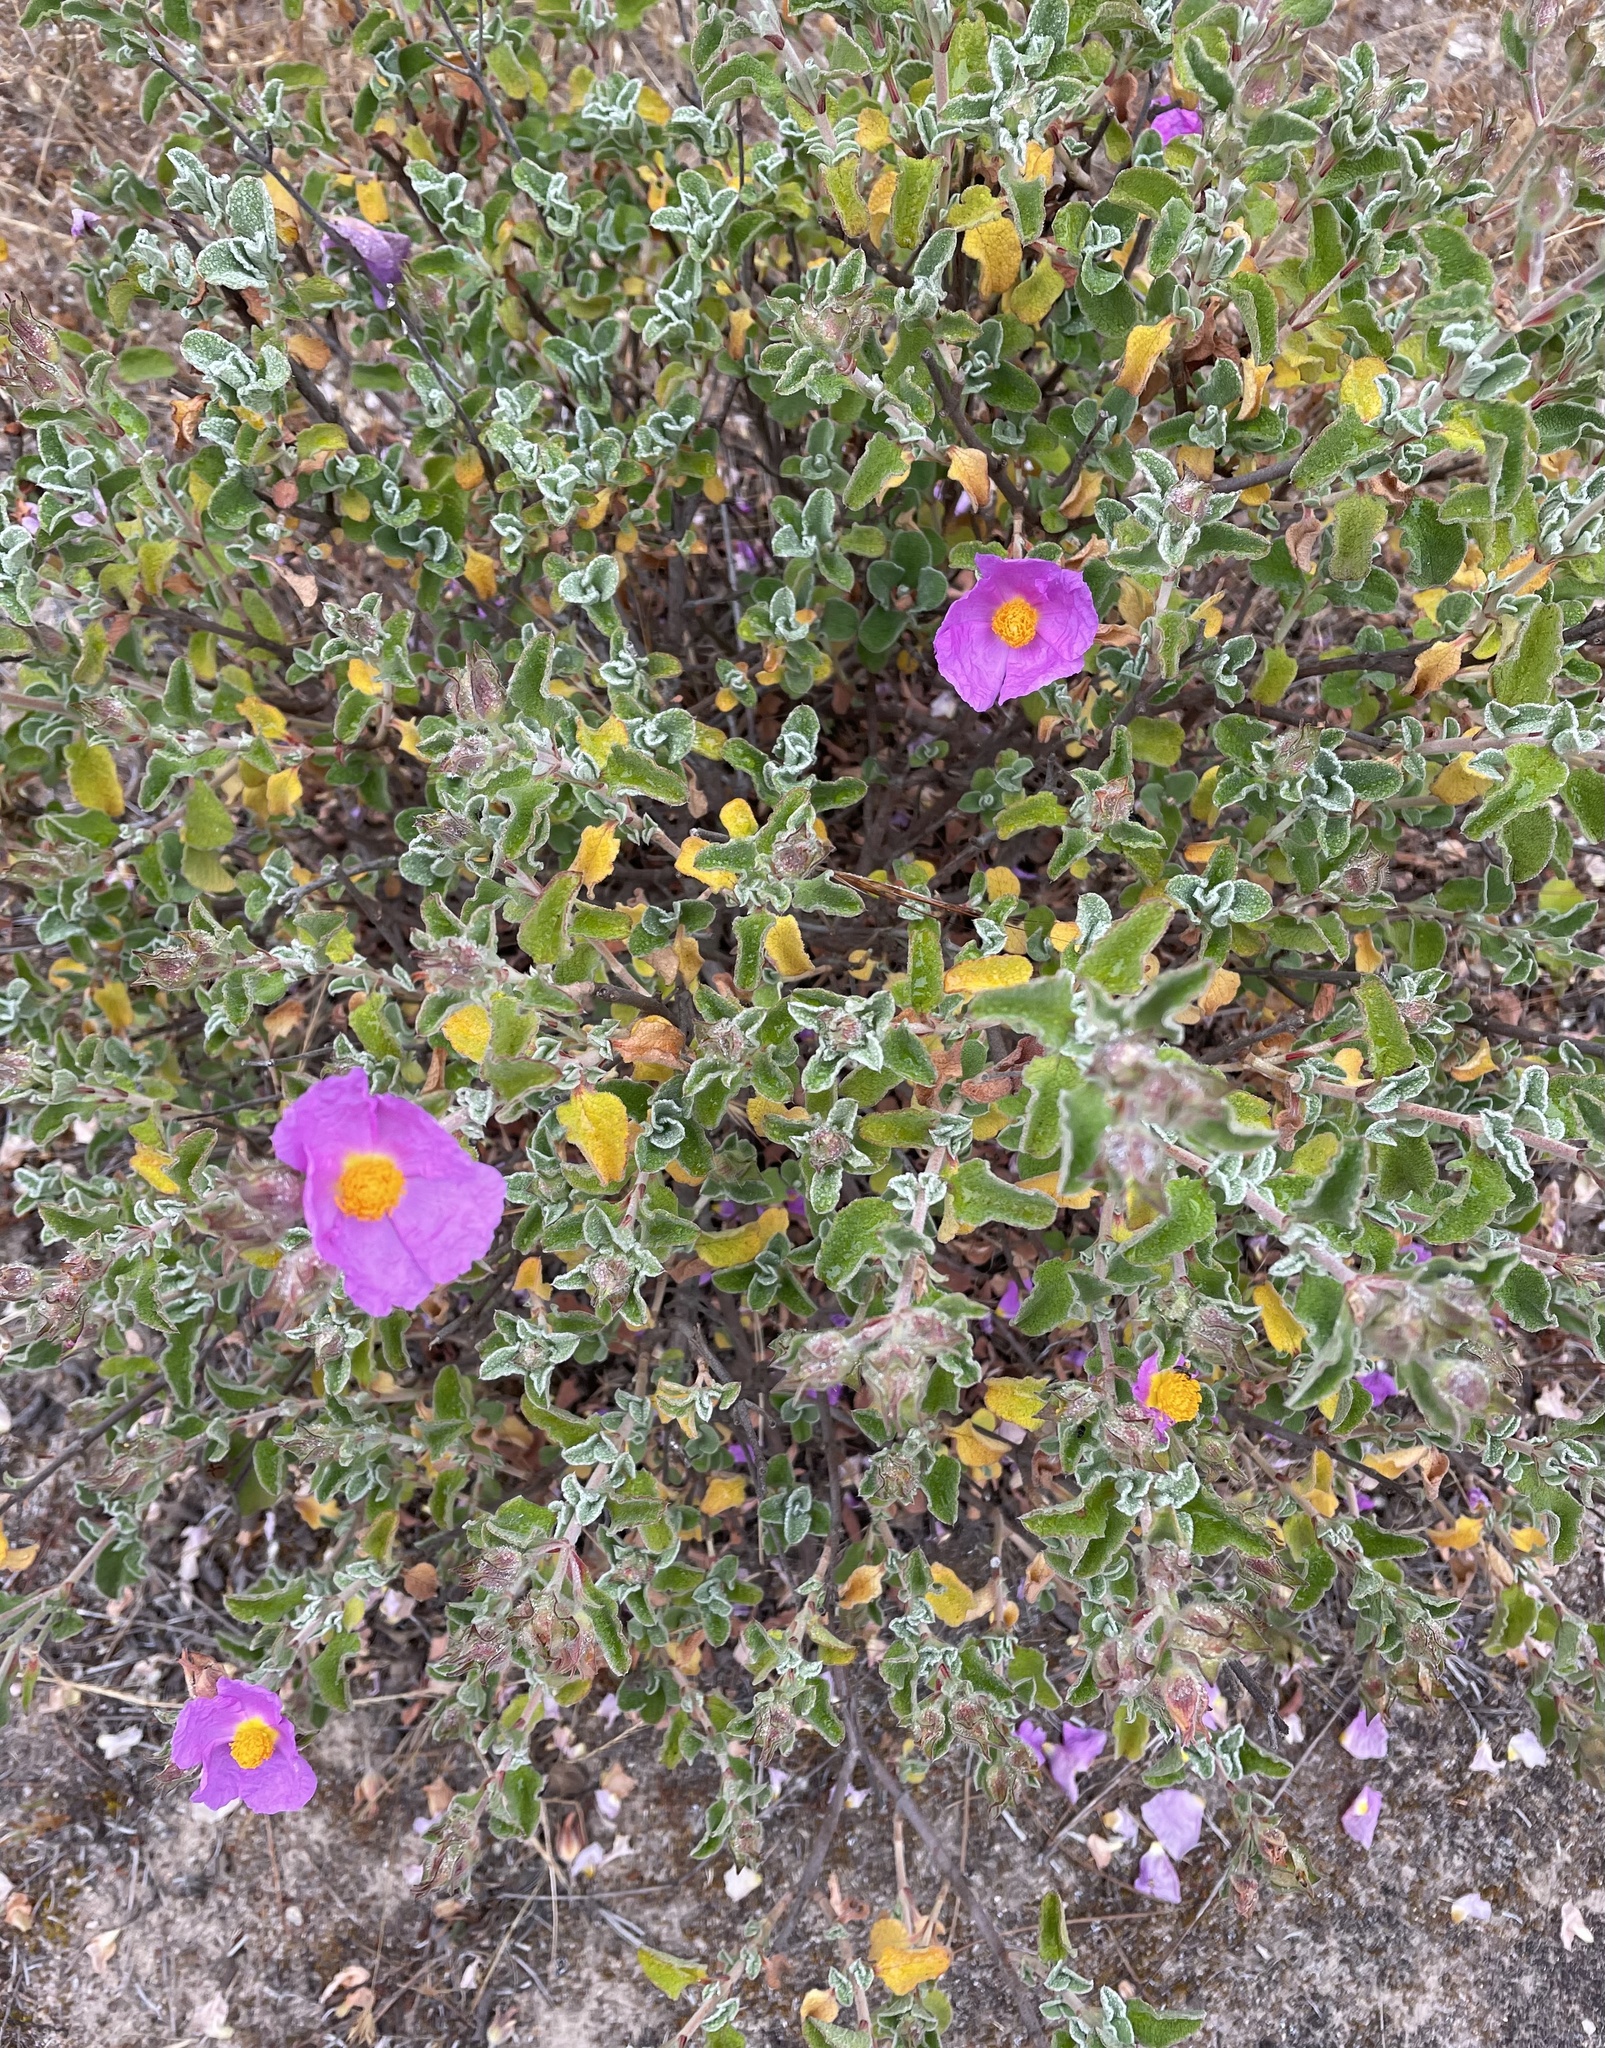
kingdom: Plantae
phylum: Tracheophyta
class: Magnoliopsida
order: Malvales
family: Cistaceae
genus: Cistus
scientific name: Cistus creticus
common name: Cretan rockrose
